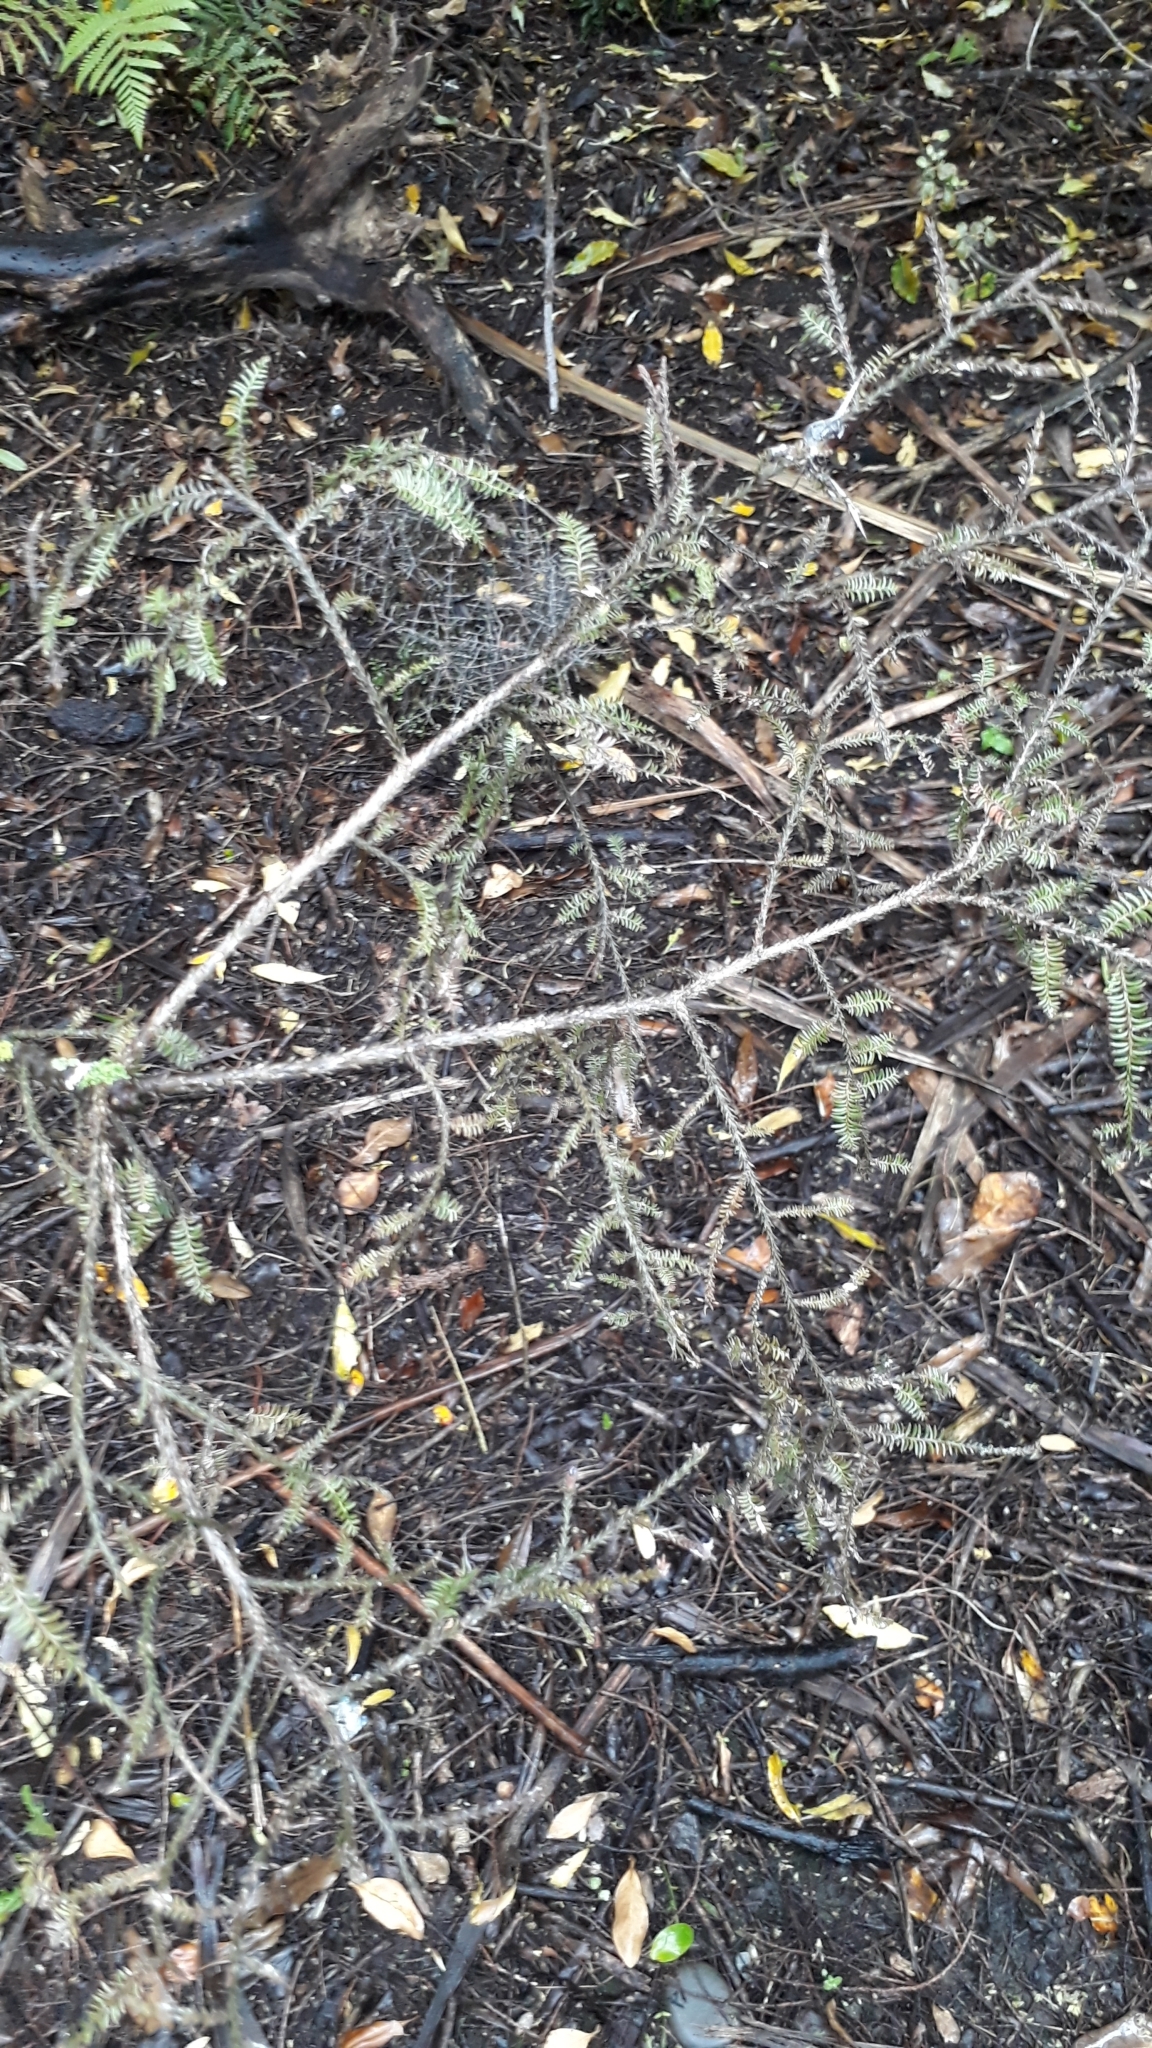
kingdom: Plantae
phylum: Tracheophyta
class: Pinopsida
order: Pinales
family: Podocarpaceae
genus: Dacrycarpus
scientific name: Dacrycarpus dacrydioides
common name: White pine
